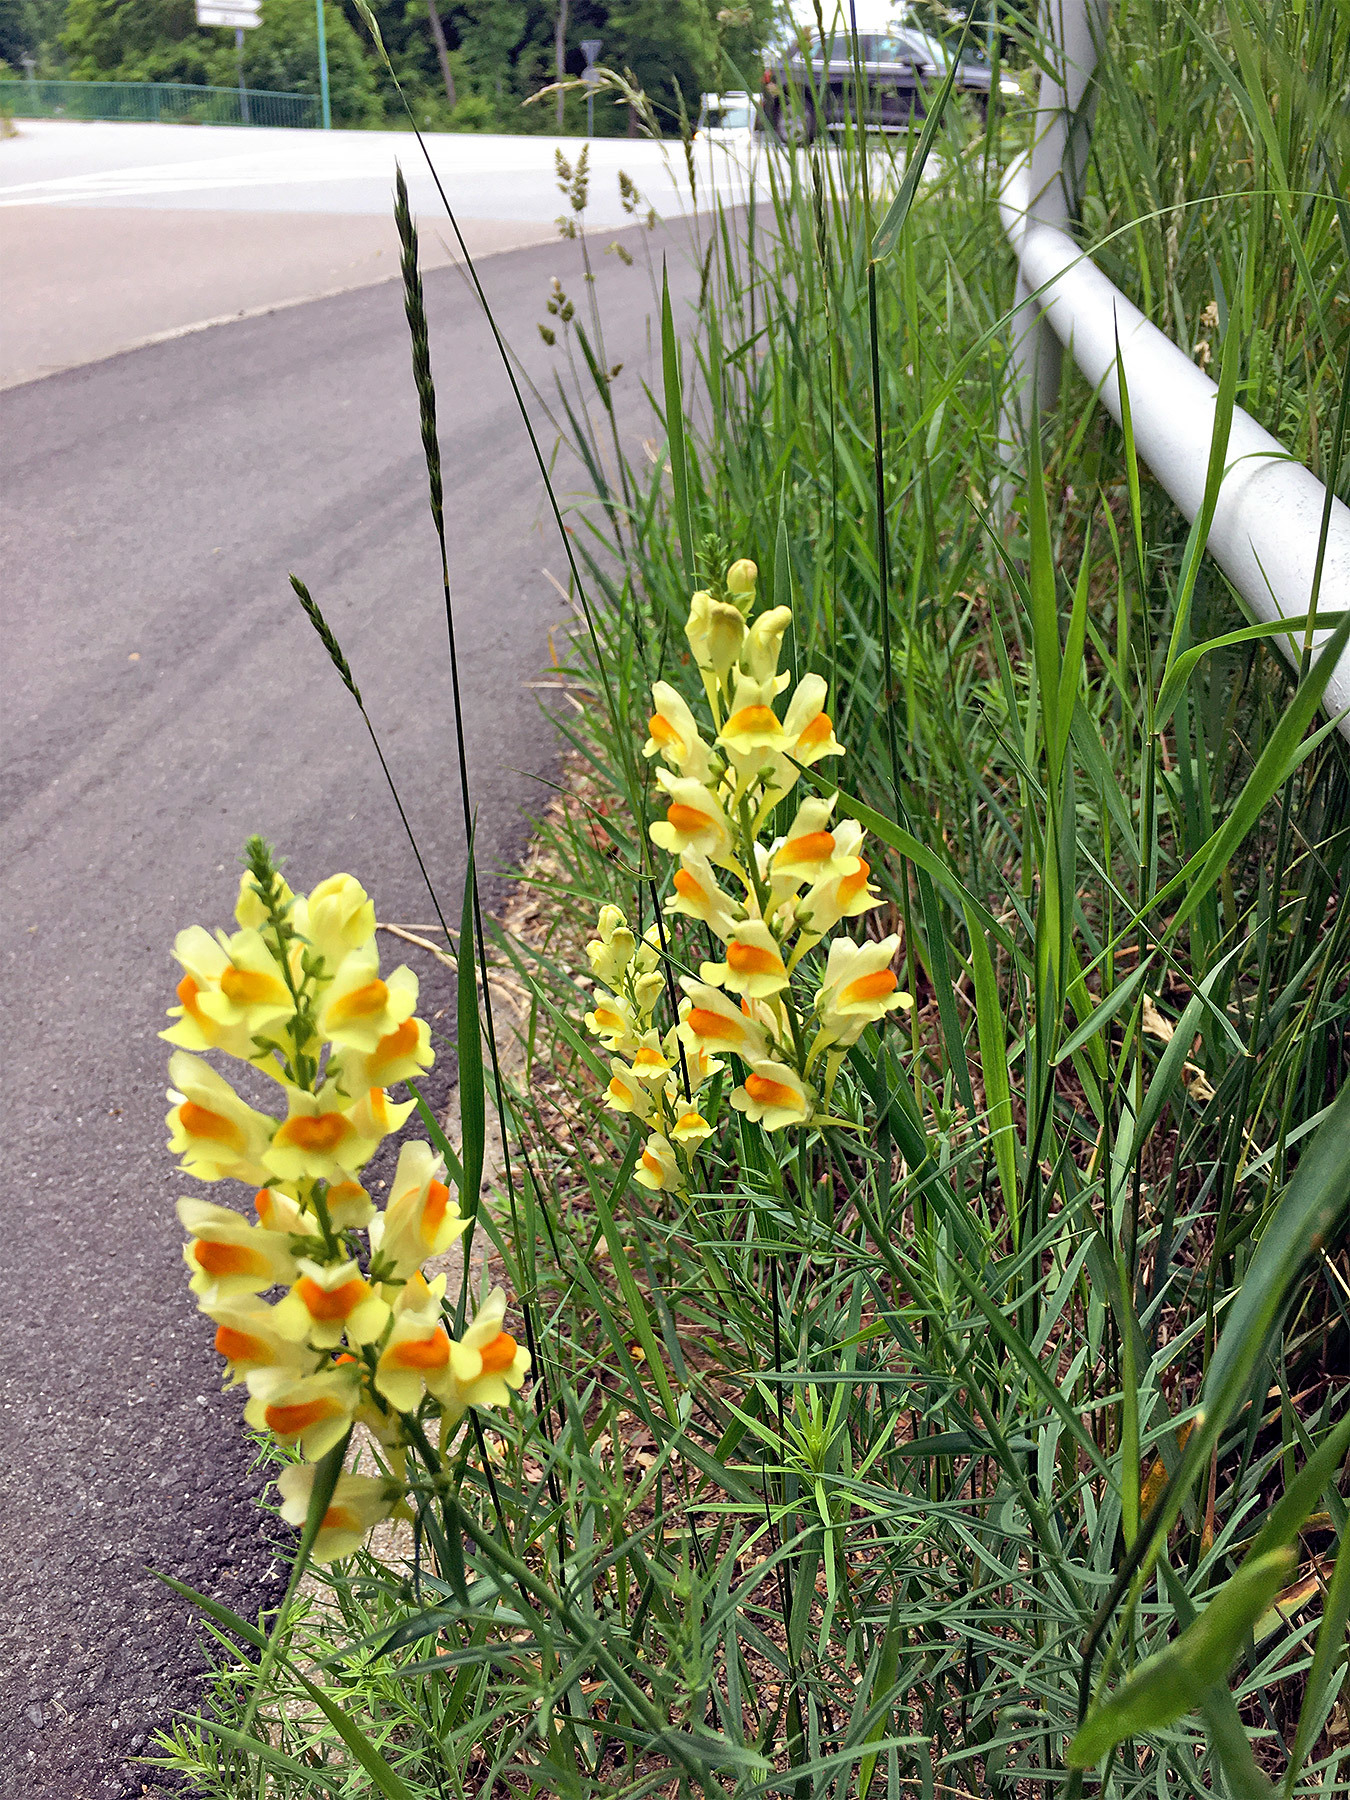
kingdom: Plantae
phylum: Tracheophyta
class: Magnoliopsida
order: Lamiales
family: Plantaginaceae
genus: Linaria
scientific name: Linaria vulgaris
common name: Butter and eggs
